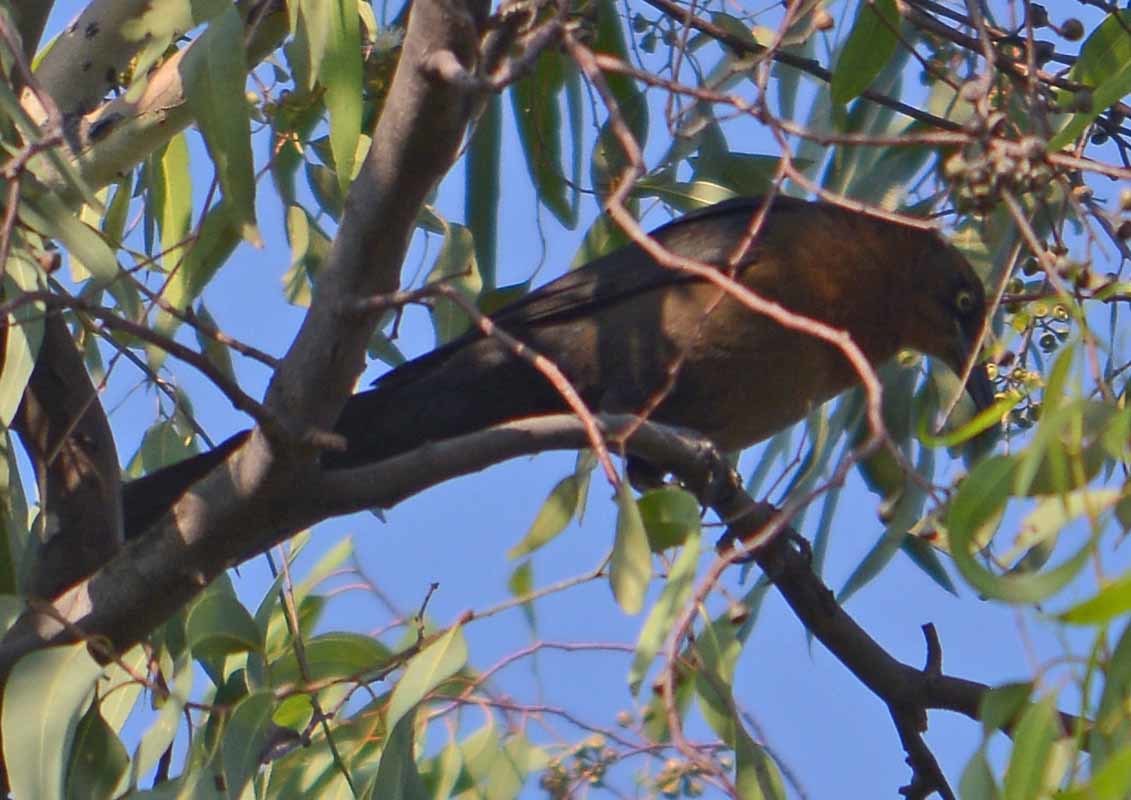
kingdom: Animalia
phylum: Chordata
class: Aves
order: Passeriformes
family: Icteridae
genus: Quiscalus
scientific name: Quiscalus mexicanus
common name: Great-tailed grackle
